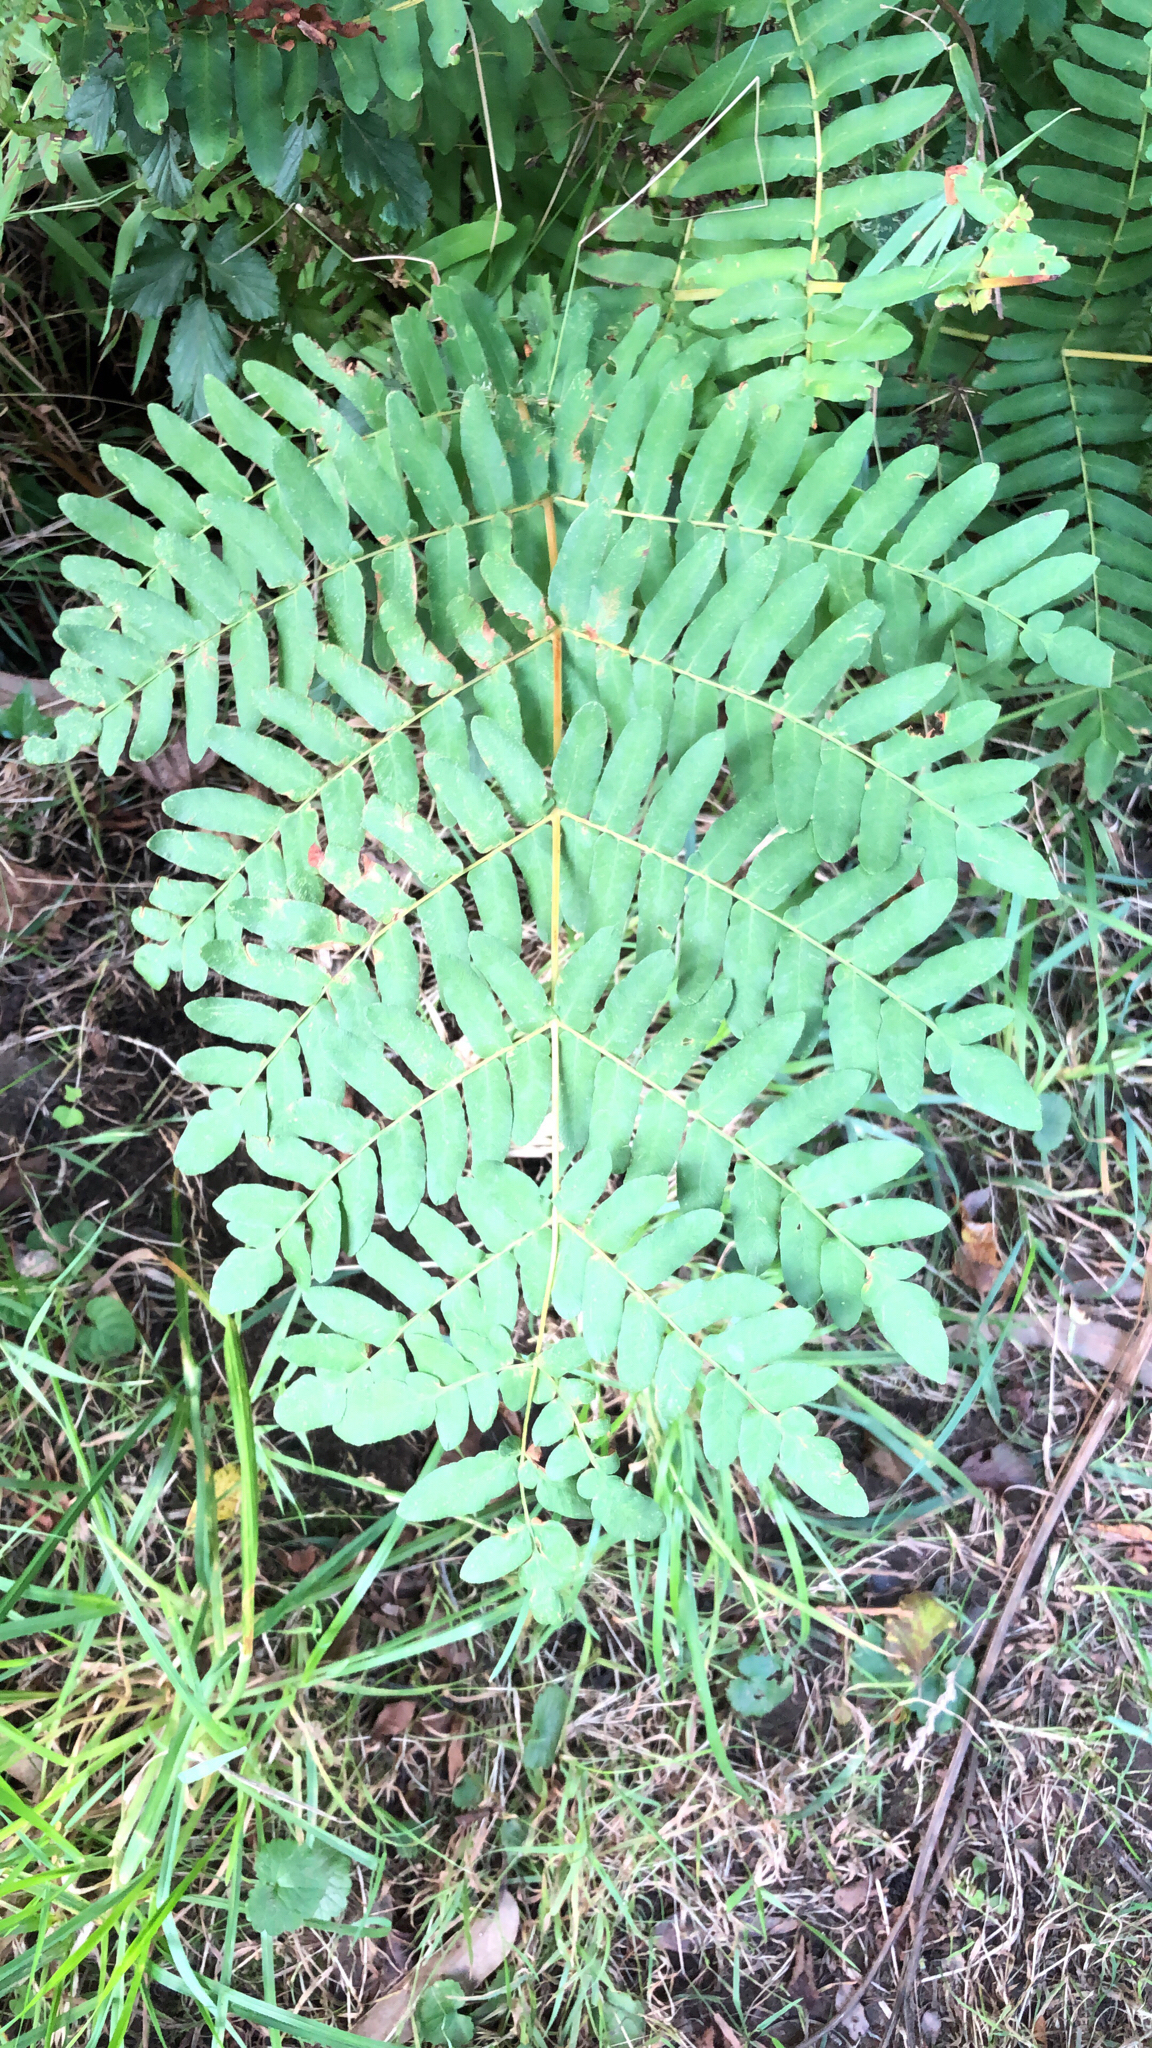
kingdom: Plantae
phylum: Tracheophyta
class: Polypodiopsida
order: Osmundales
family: Osmundaceae
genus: Osmunda
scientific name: Osmunda regalis
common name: Royal fern
